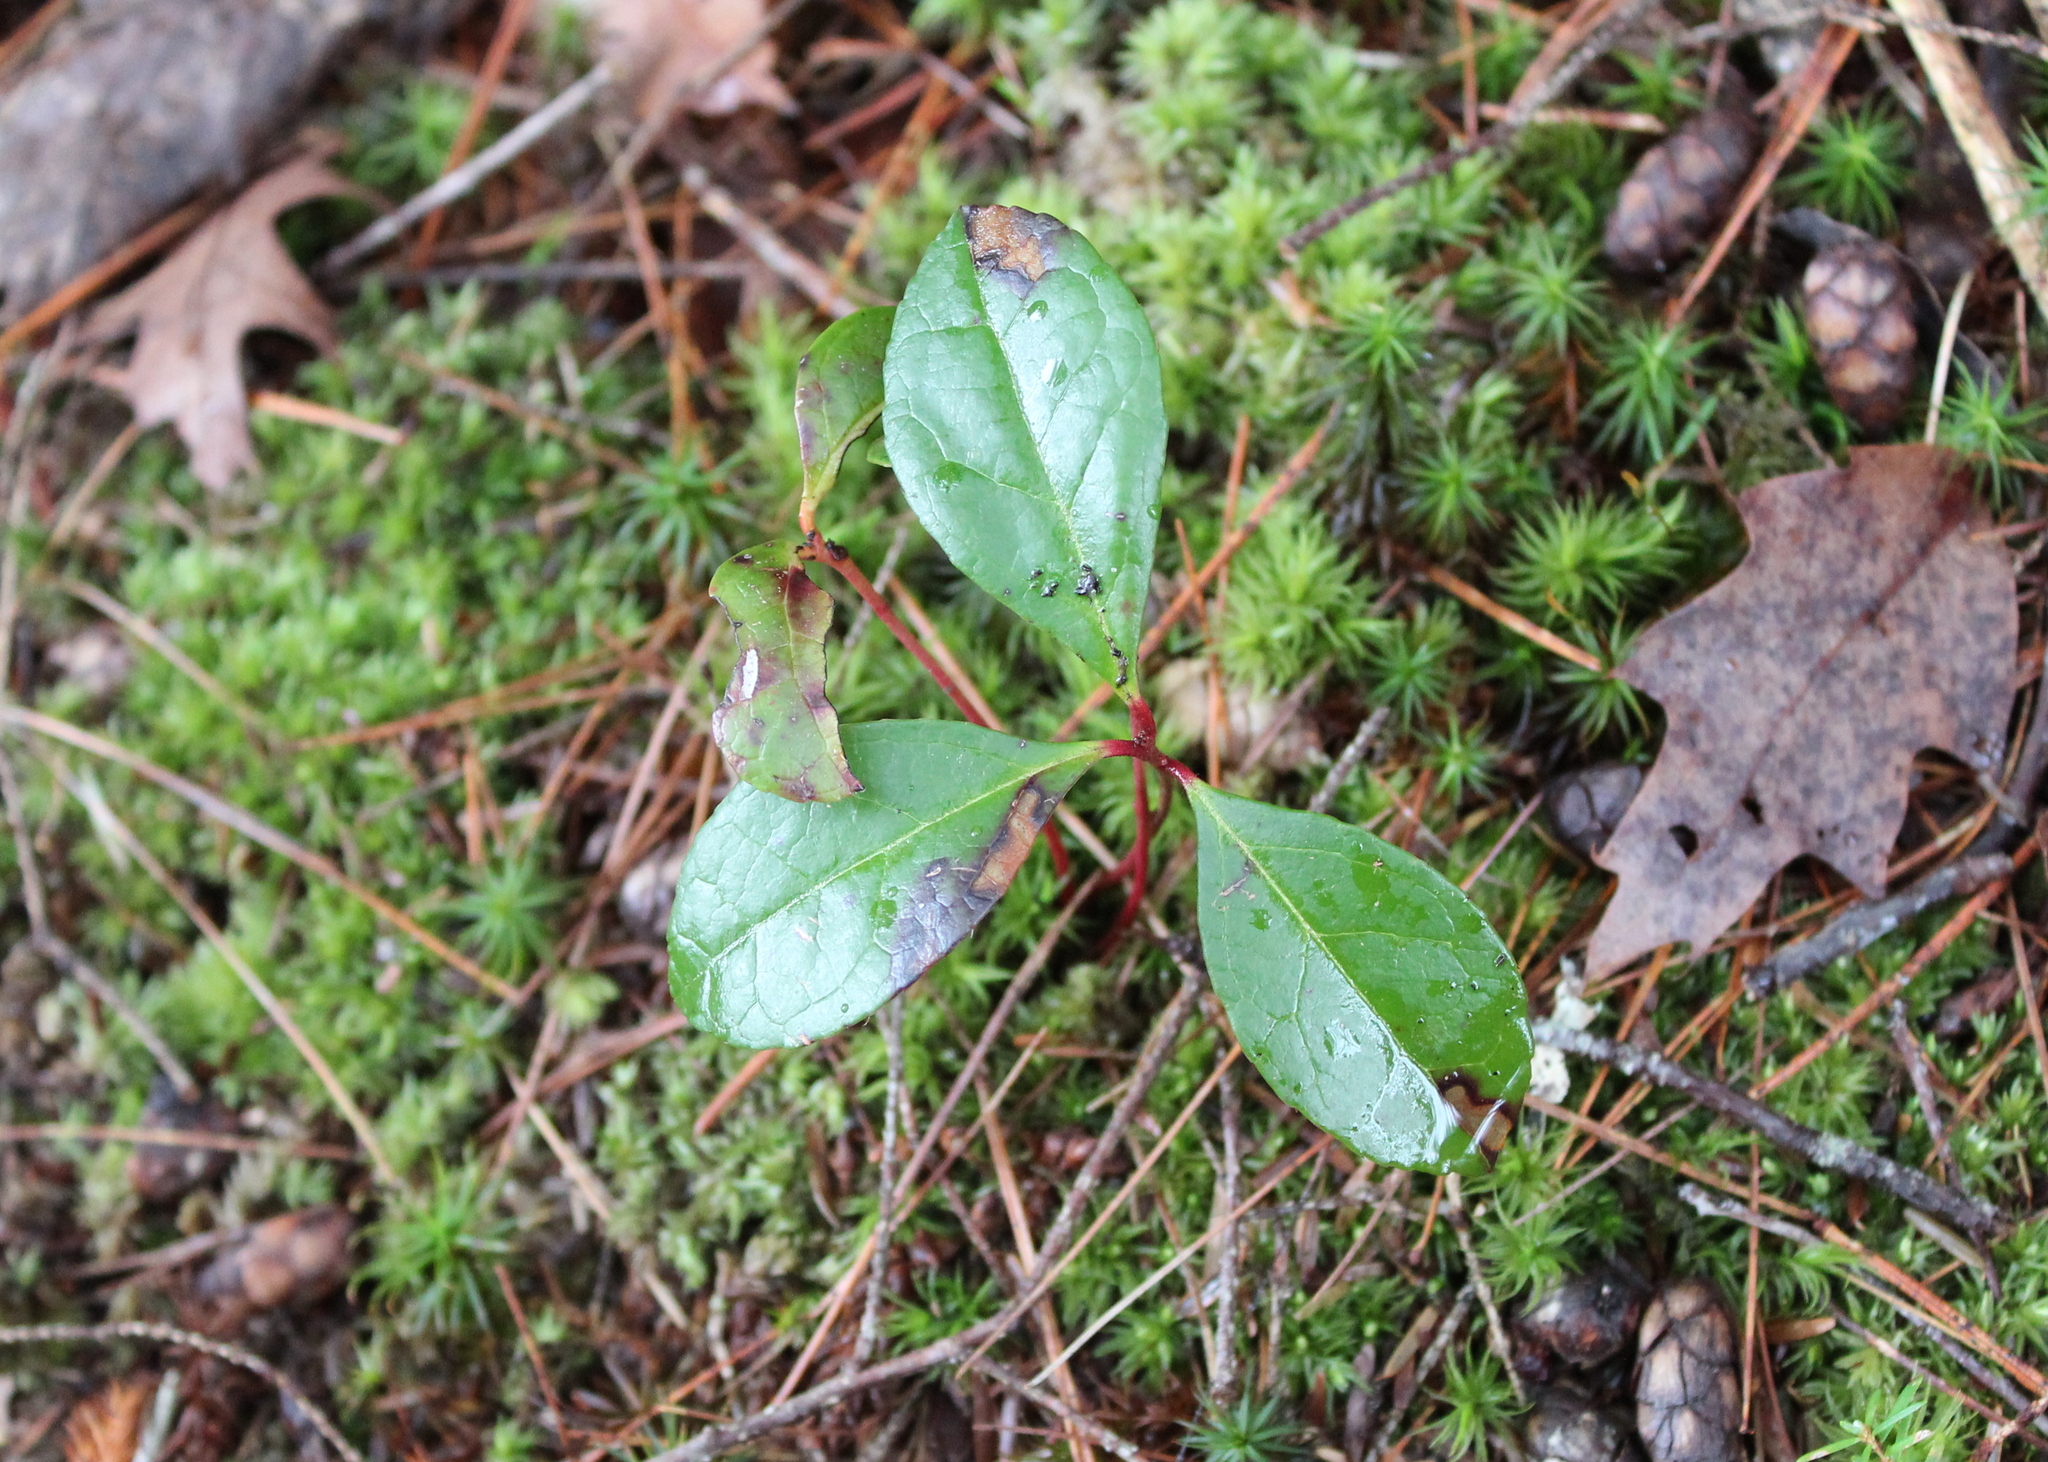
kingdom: Plantae
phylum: Tracheophyta
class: Magnoliopsida
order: Ericales
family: Ericaceae
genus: Gaultheria
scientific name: Gaultheria procumbens
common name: Checkerberry
